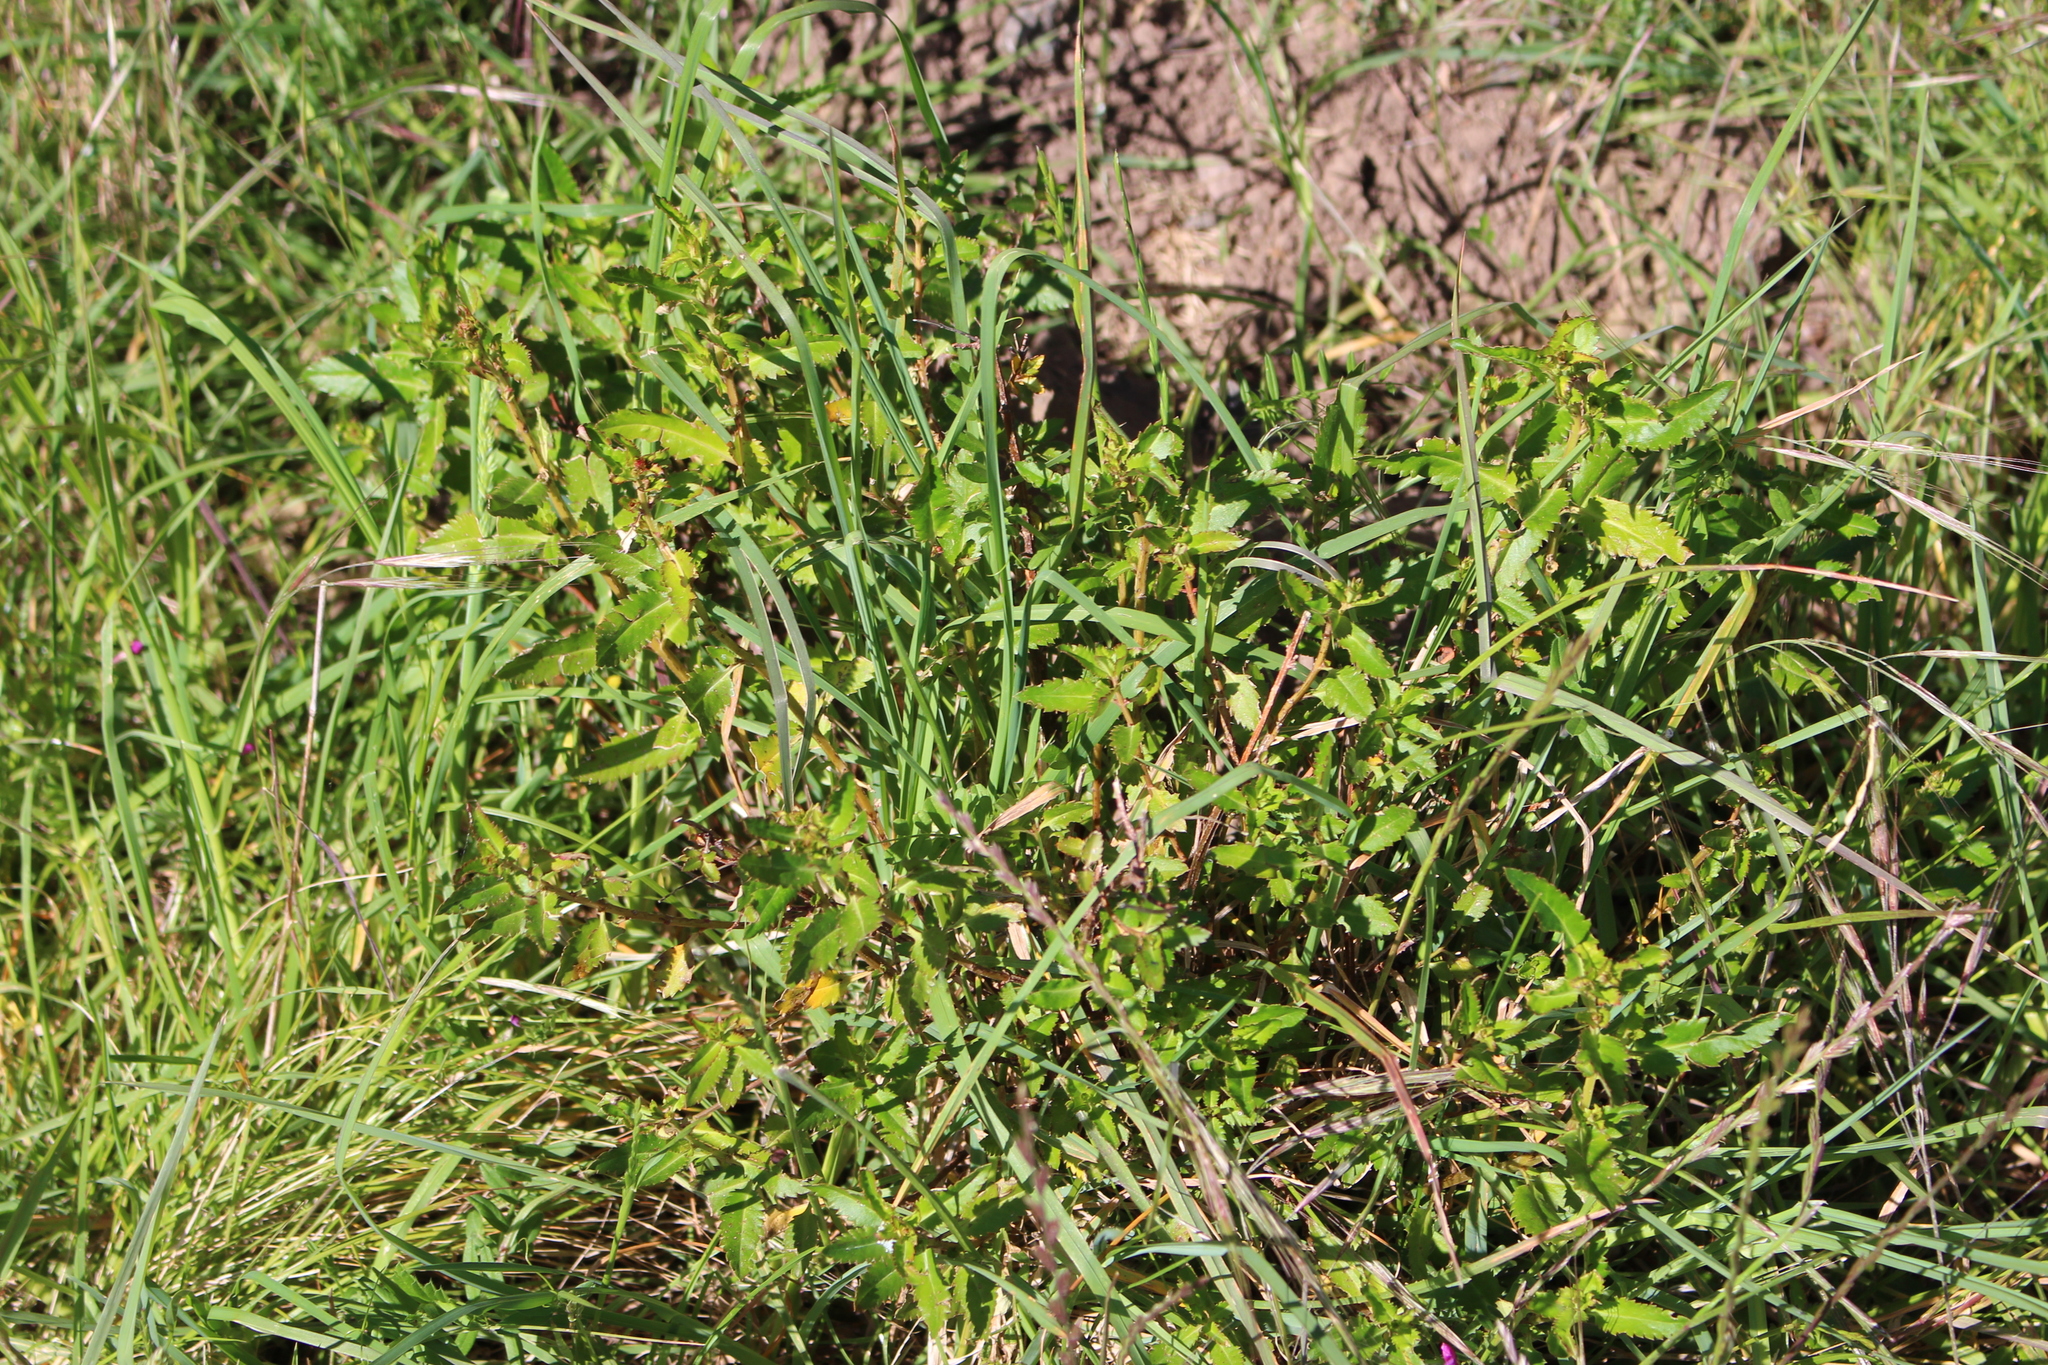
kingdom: Plantae
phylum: Tracheophyta
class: Magnoliopsida
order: Saxifragales
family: Haloragaceae
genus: Haloragis
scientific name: Haloragis erecta
